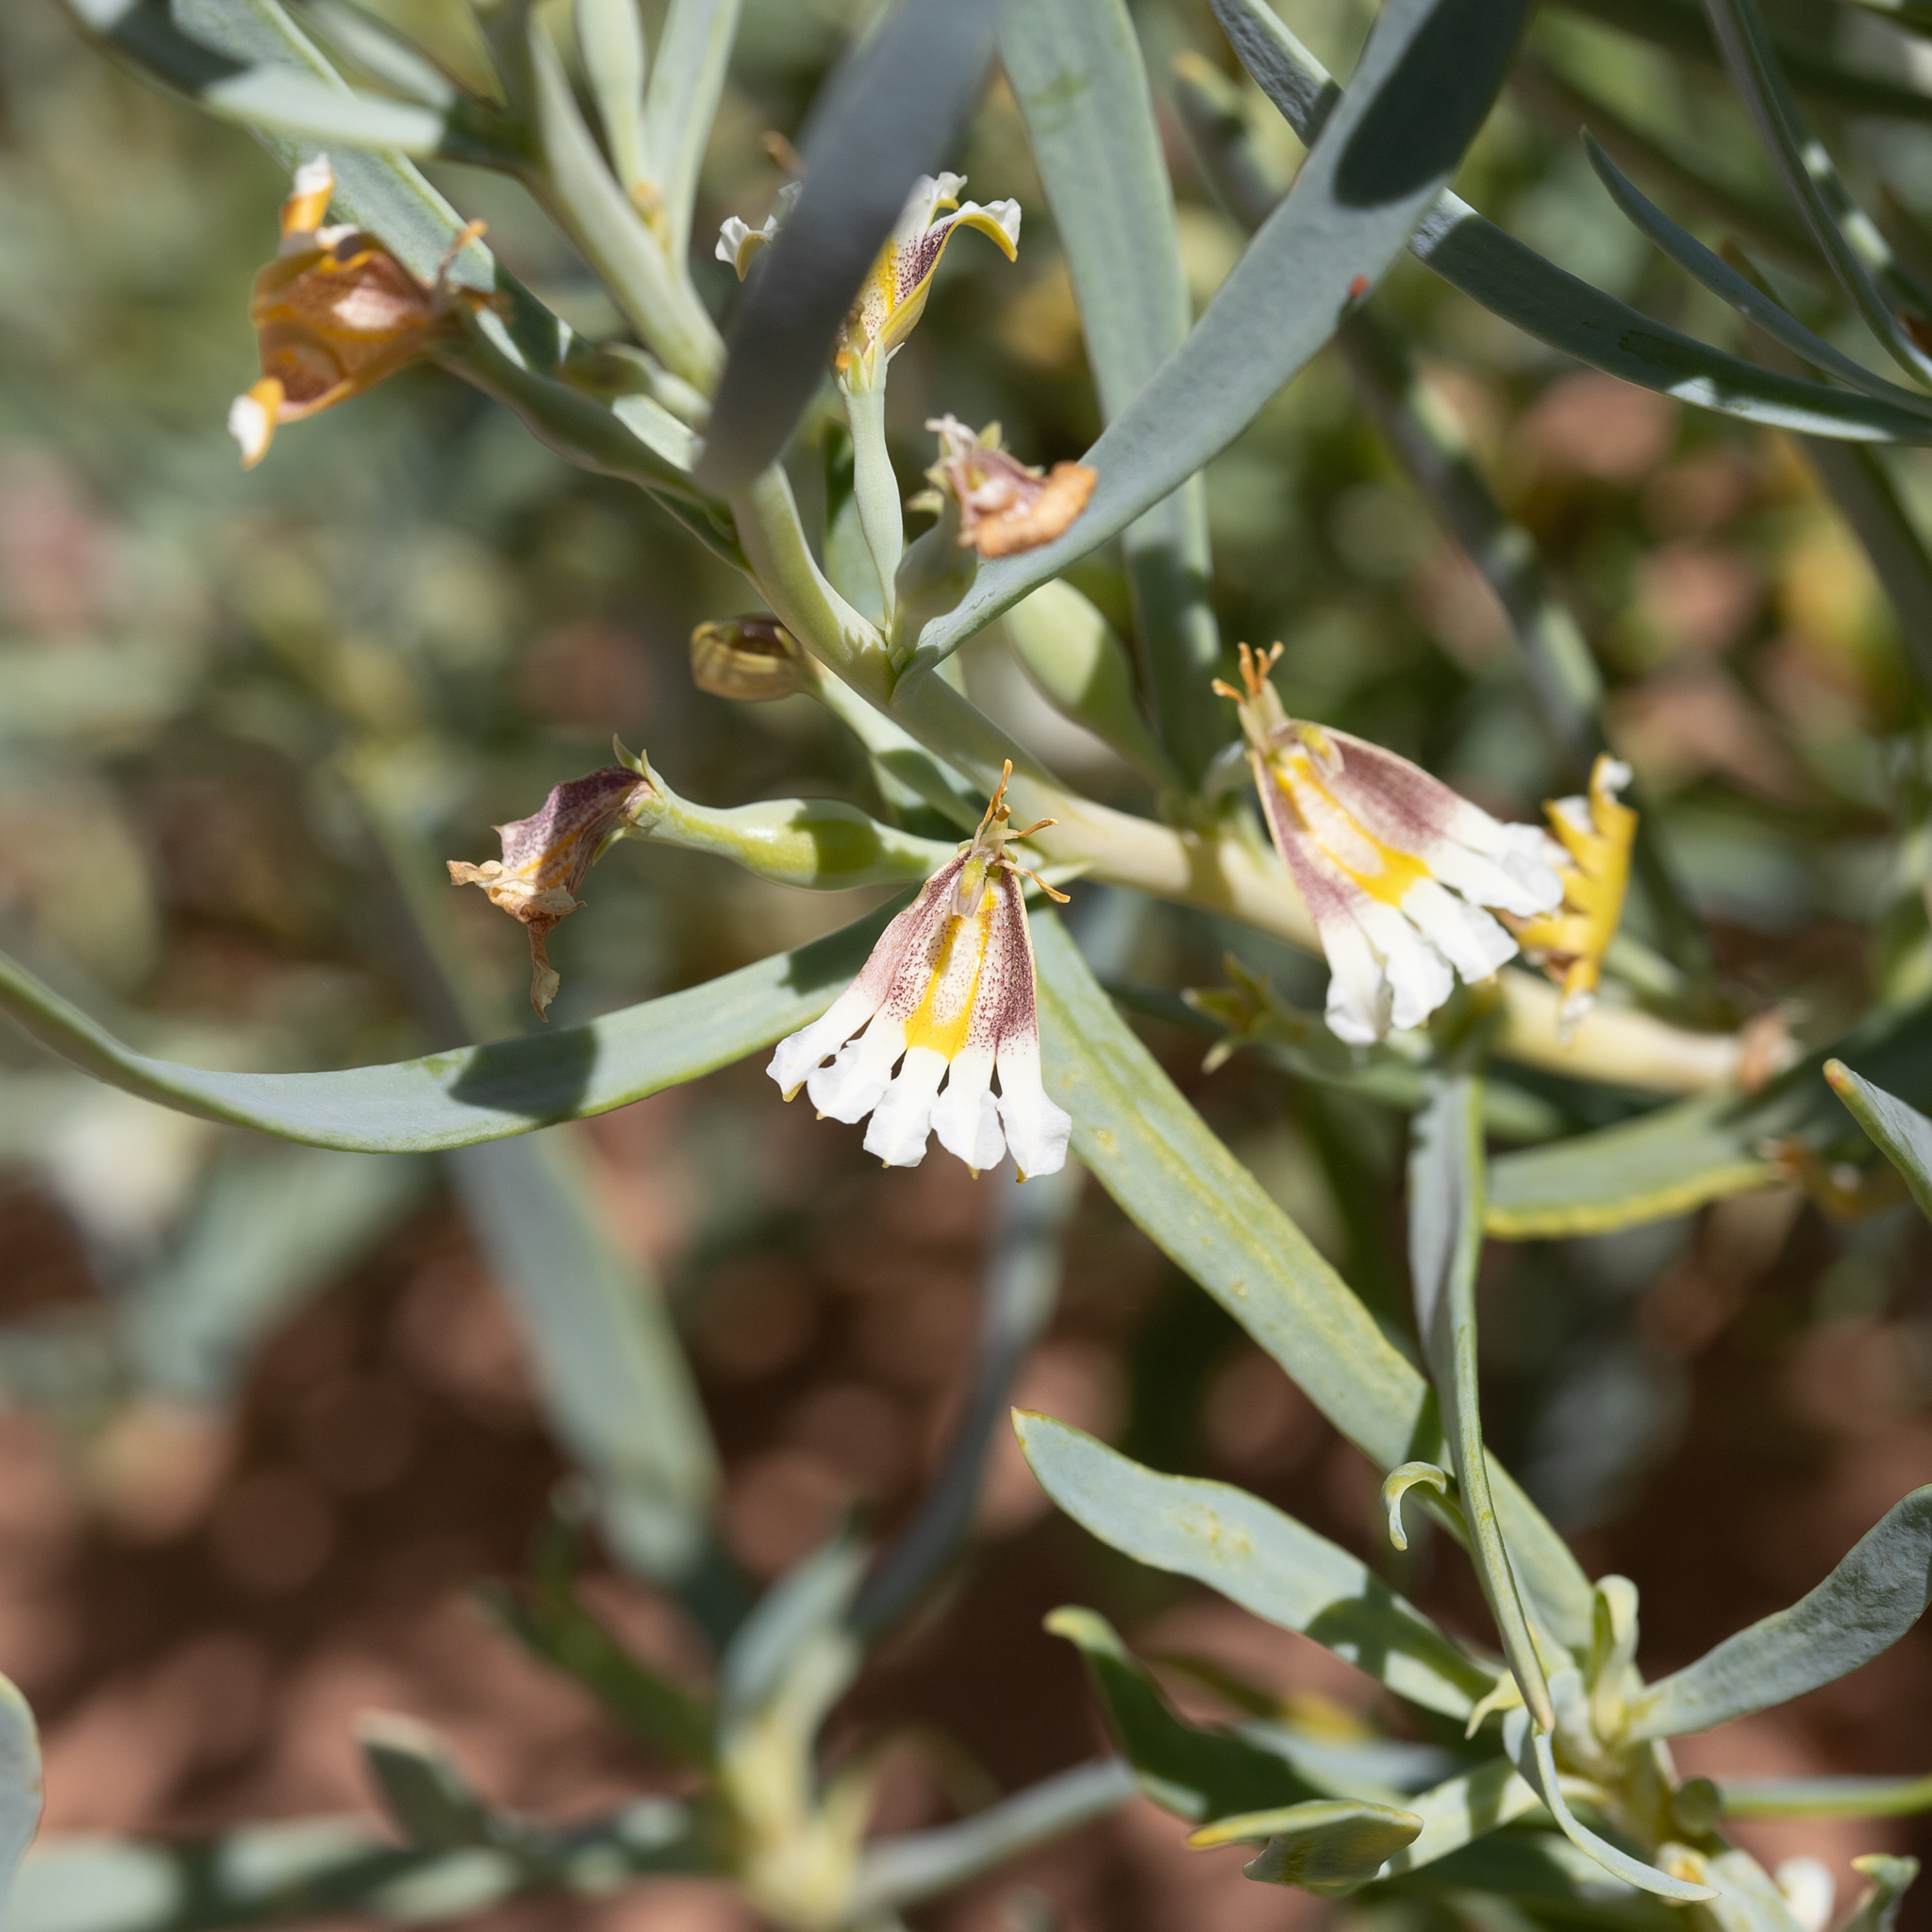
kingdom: Plantae
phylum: Tracheophyta
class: Magnoliopsida
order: Asterales
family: Goodeniaceae
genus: Goodenia
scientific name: Goodenia collaris
